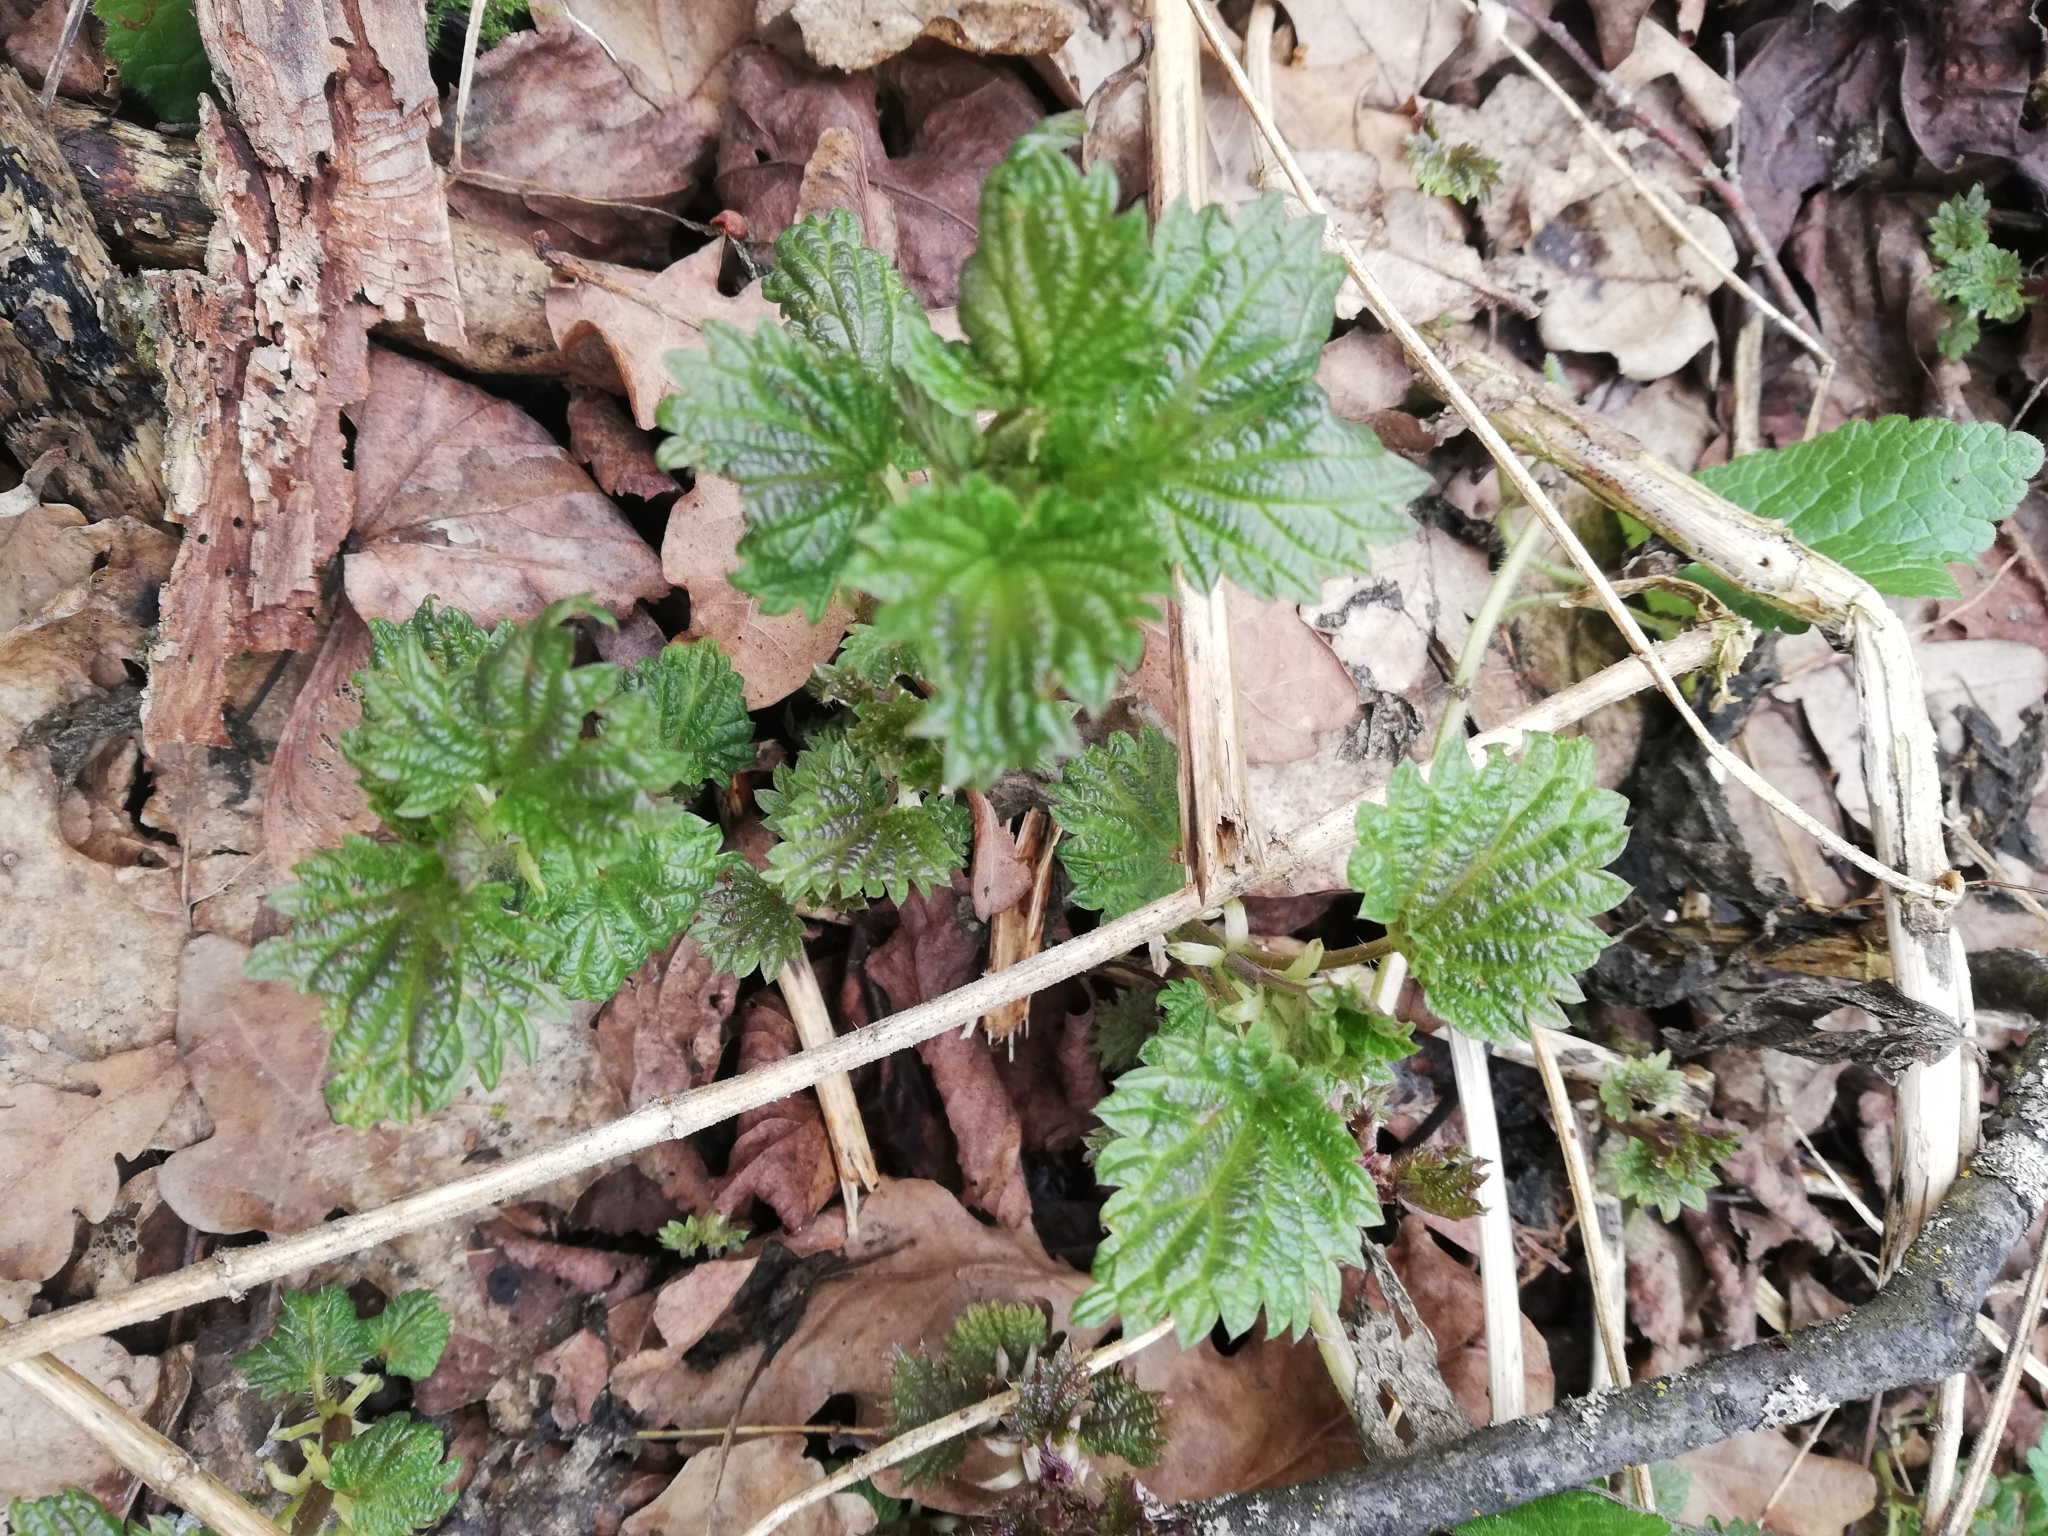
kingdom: Plantae
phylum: Tracheophyta
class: Magnoliopsida
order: Rosales
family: Urticaceae
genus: Urtica
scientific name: Urtica dioica
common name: Common nettle
